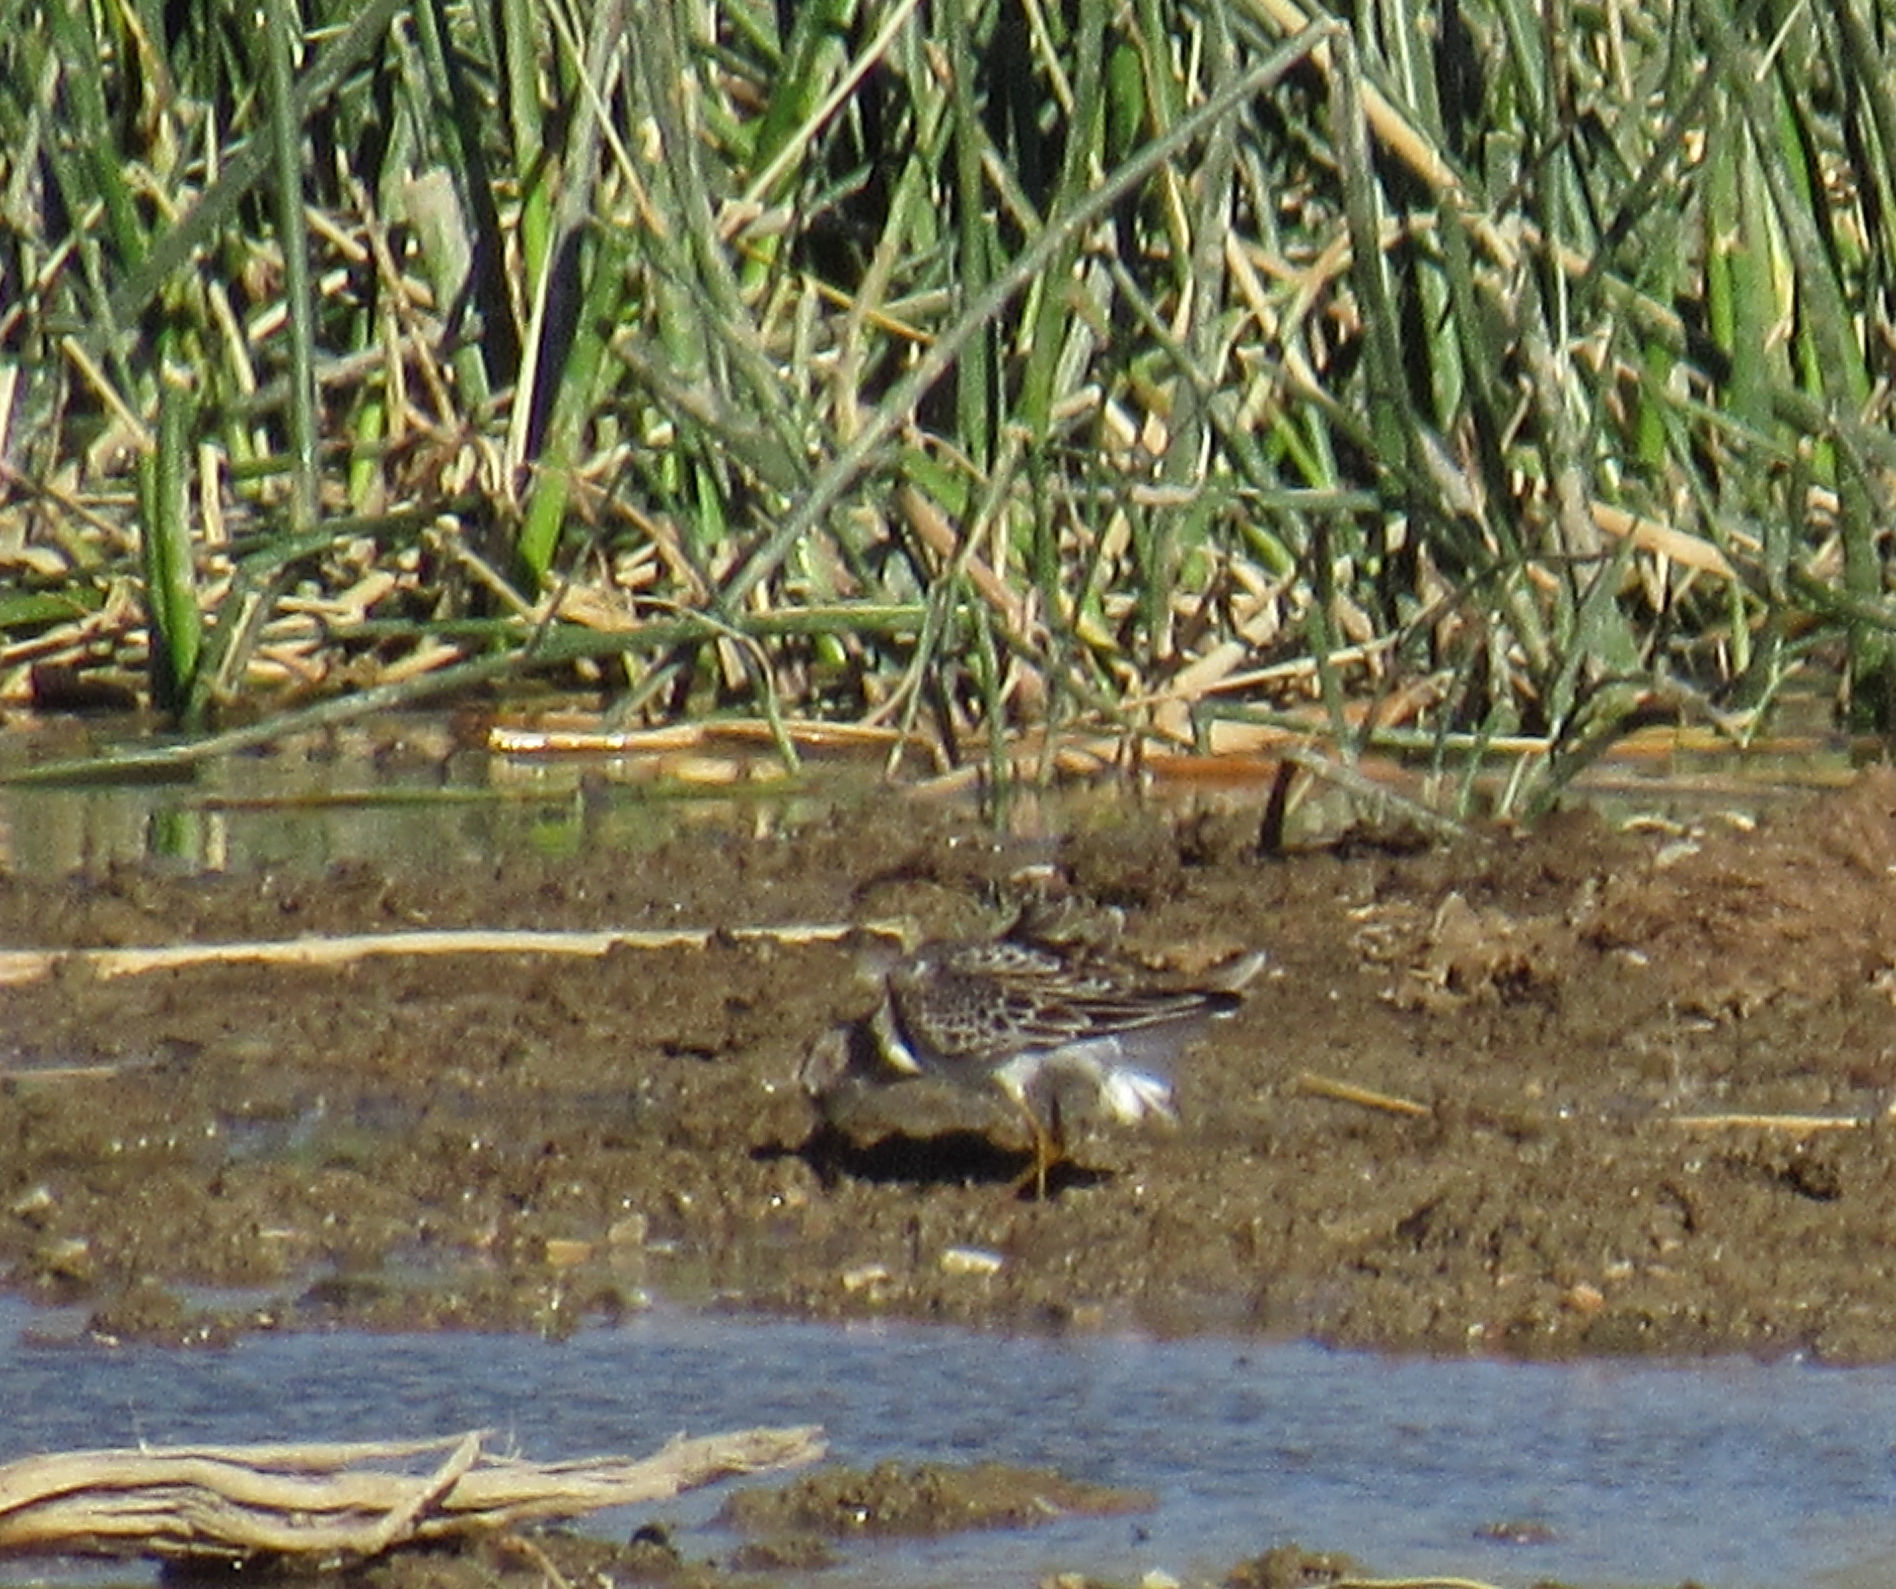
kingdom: Animalia
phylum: Chordata
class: Aves
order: Charadriiformes
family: Scolopacidae
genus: Calidris
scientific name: Calidris melanotos
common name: Pectoral sandpiper
